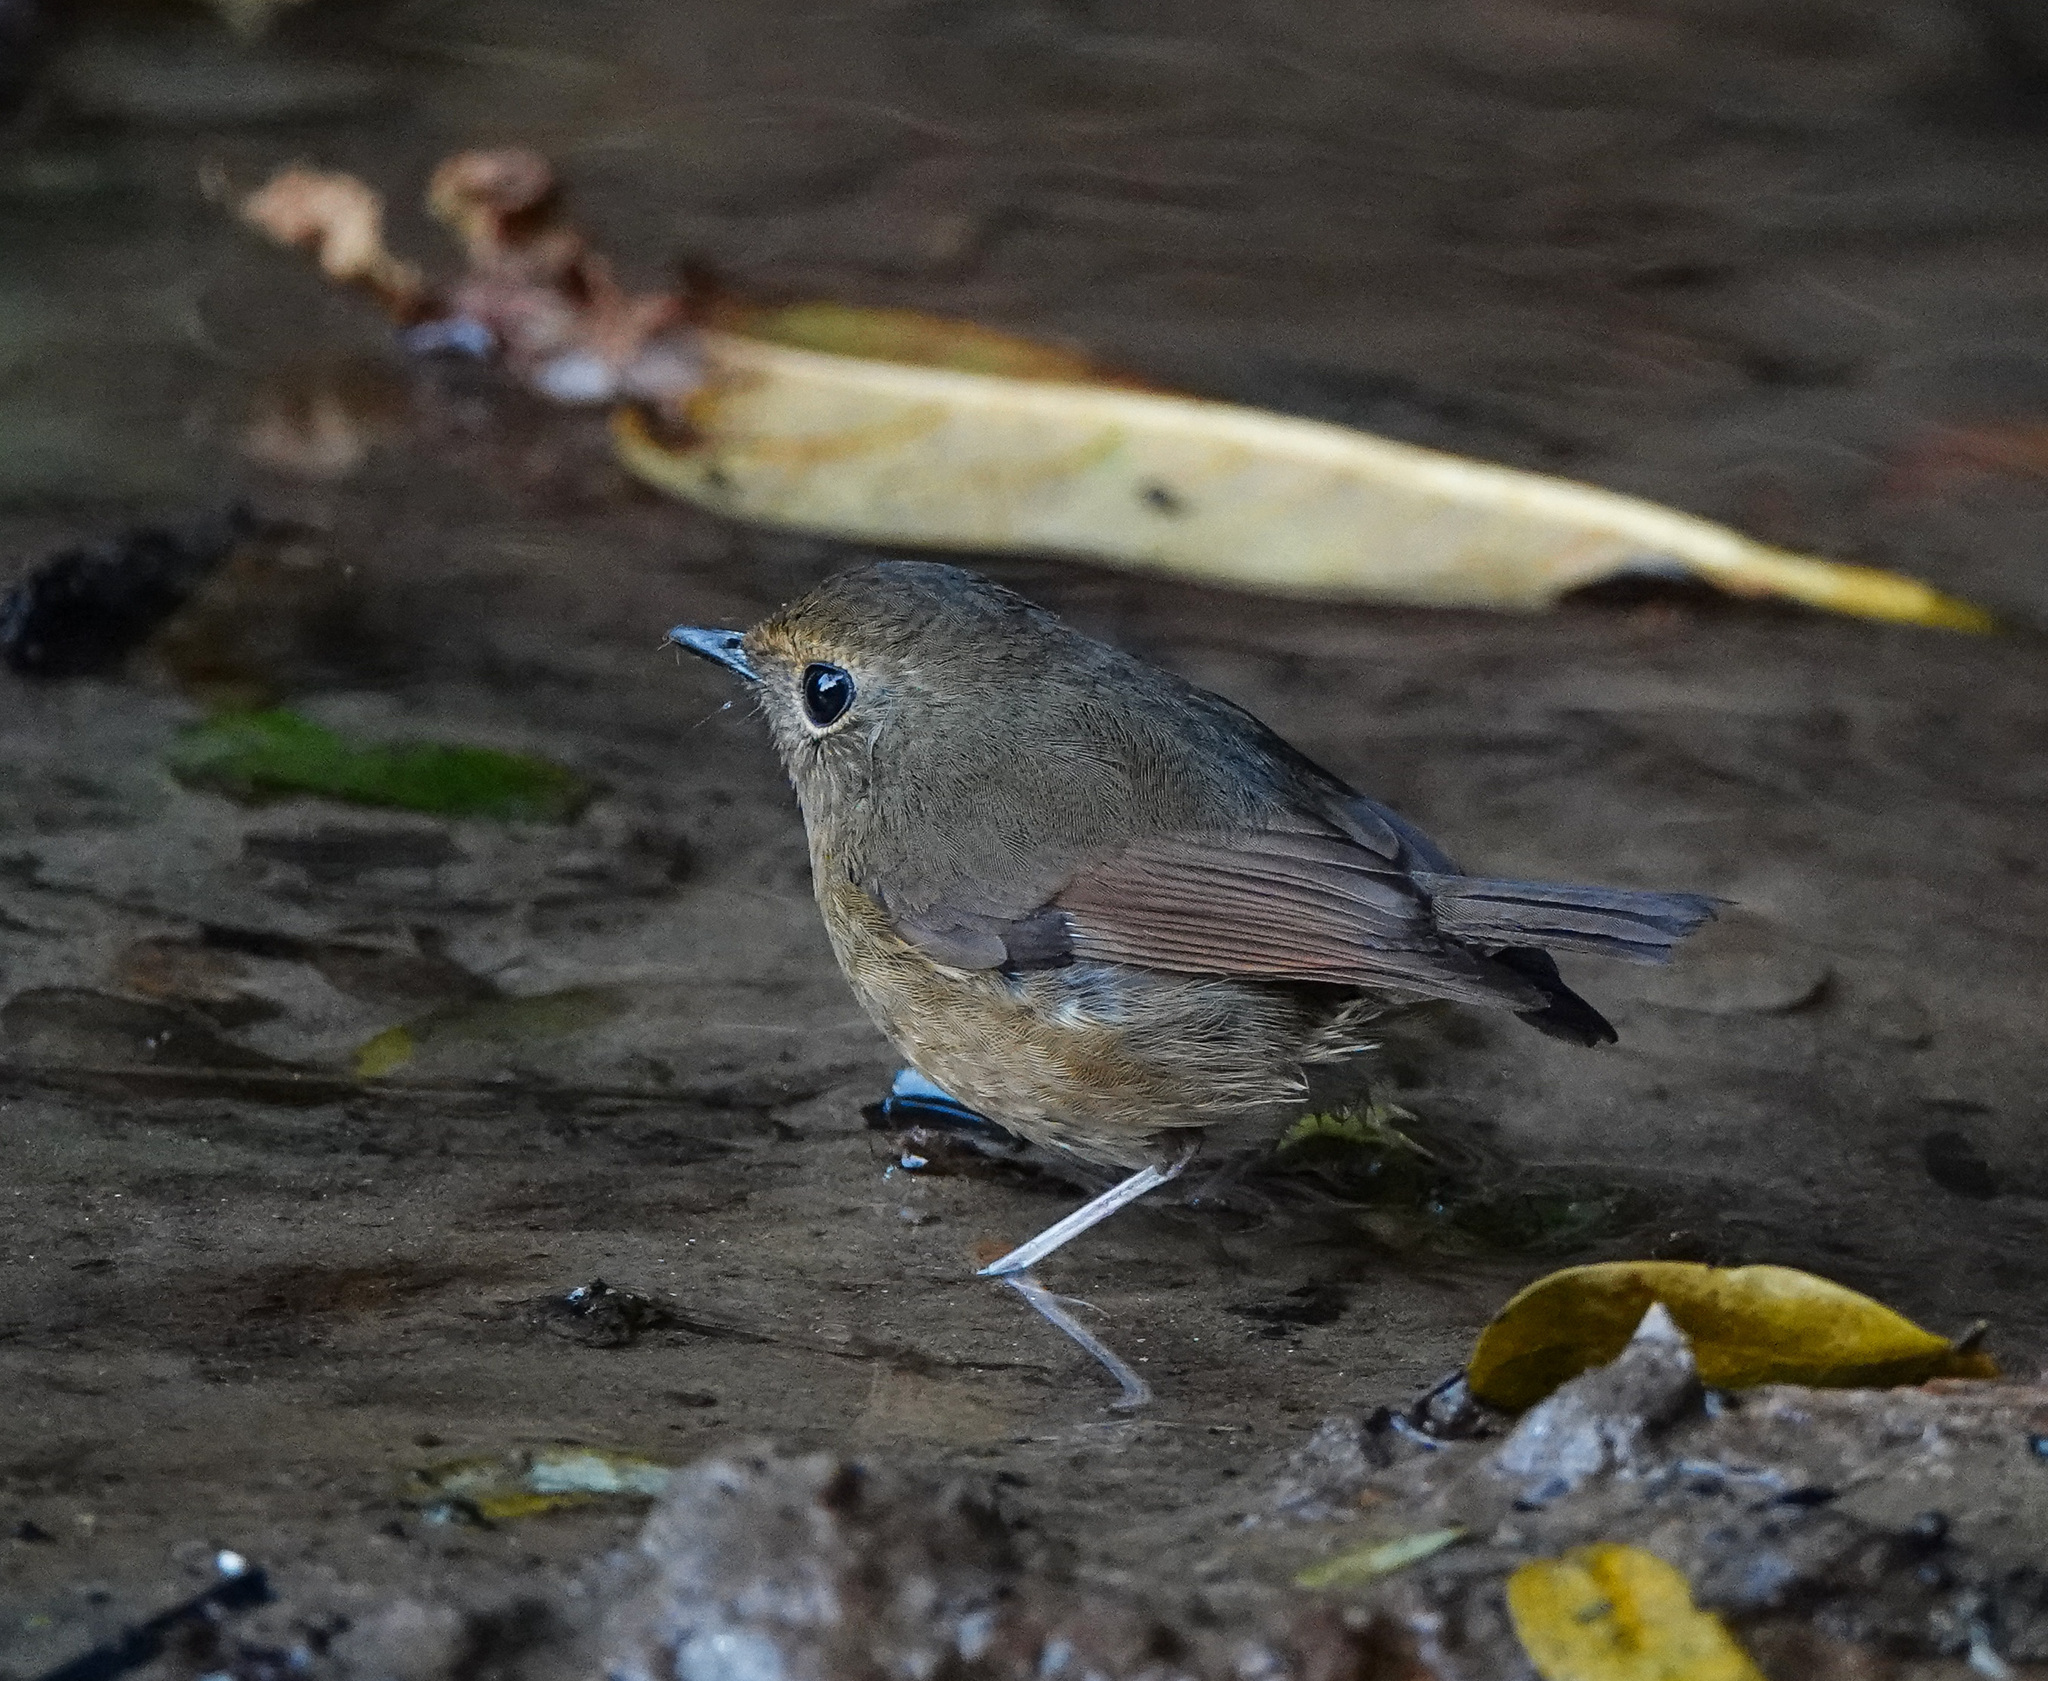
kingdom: Animalia
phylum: Chordata
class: Aves
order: Passeriformes
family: Muscicapidae
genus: Ficedula
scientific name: Ficedula hyperythra
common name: Snowy-browed flycatcher
